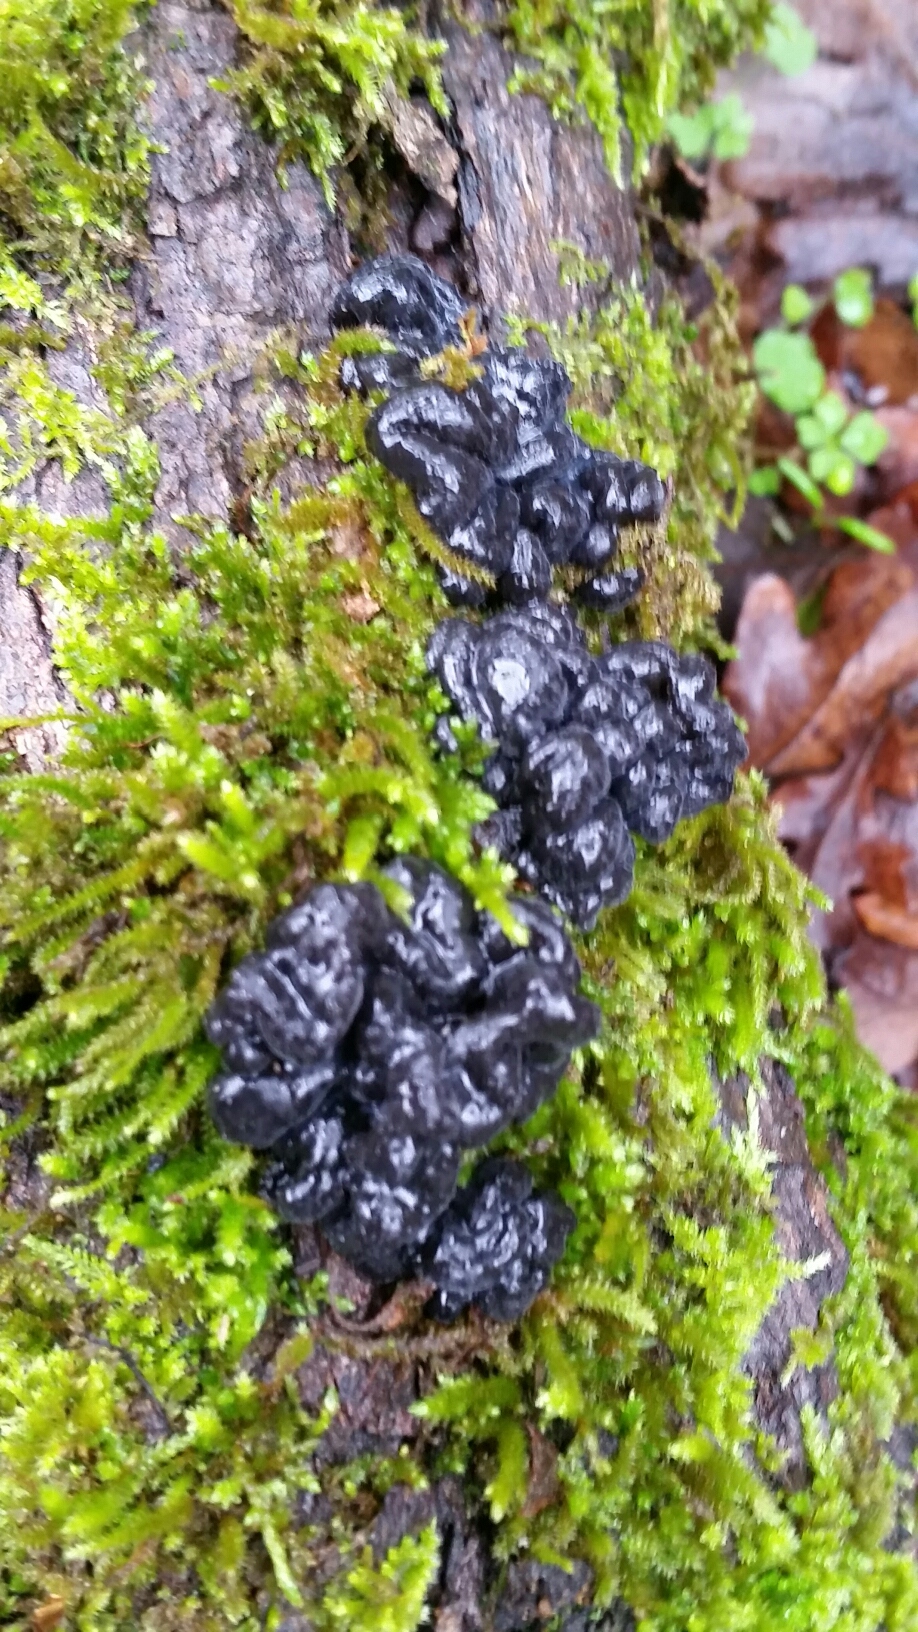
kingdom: Fungi
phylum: Basidiomycota
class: Agaricomycetes
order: Auriculariales
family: Auriculariaceae
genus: Exidia
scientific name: Exidia glandulosa
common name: Witches' butter
